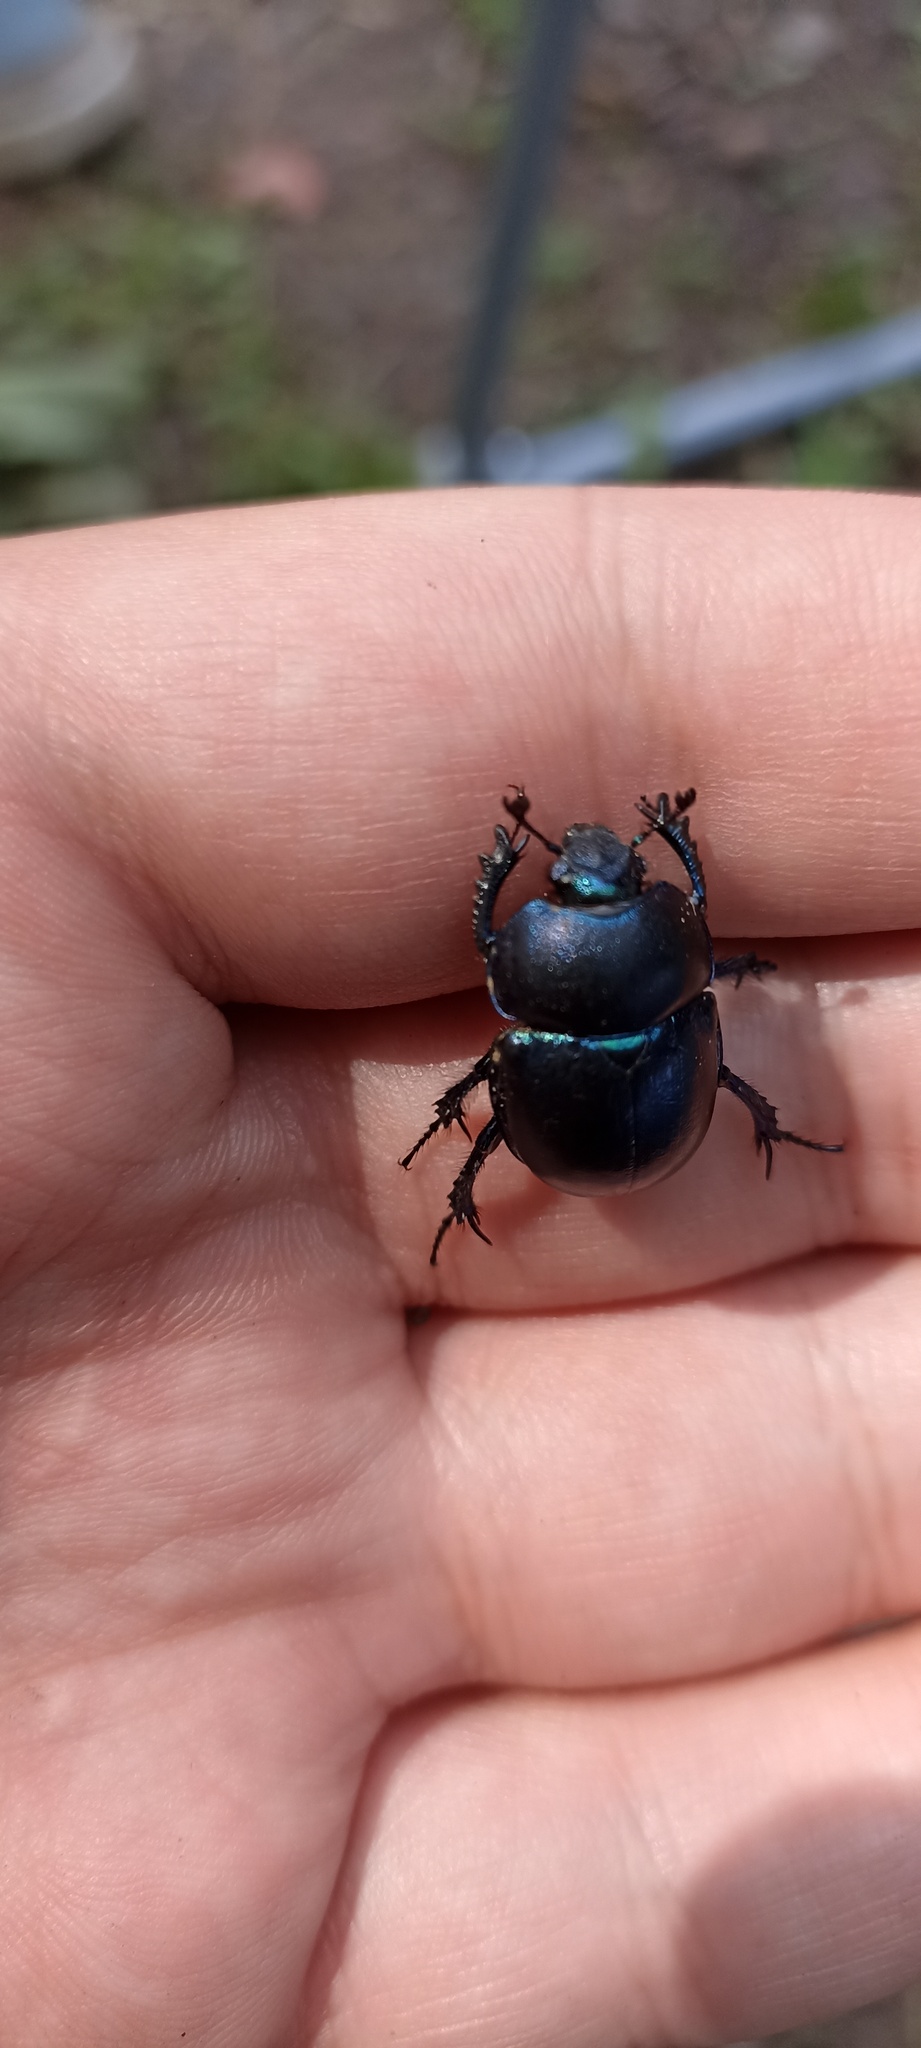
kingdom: Animalia
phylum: Arthropoda
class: Insecta
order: Coleoptera
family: Geotrupidae
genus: Trypocopris
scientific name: Trypocopris vernalis
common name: Spring dumbledor
